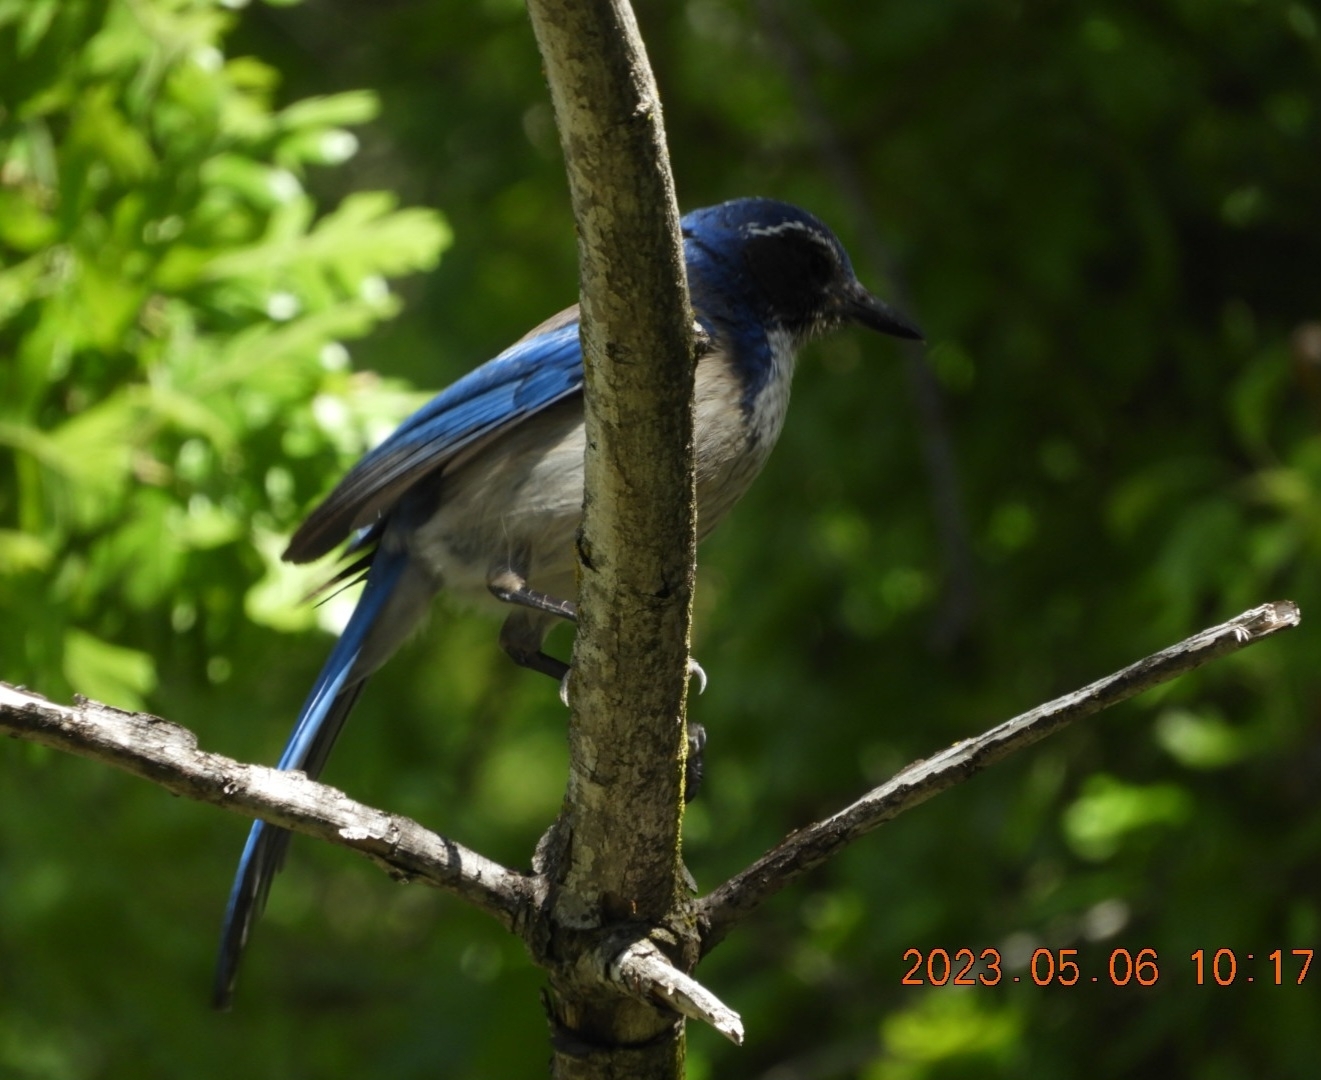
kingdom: Animalia
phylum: Chordata
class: Aves
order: Passeriformes
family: Corvidae
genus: Aphelocoma
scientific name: Aphelocoma californica
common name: California scrub-jay
